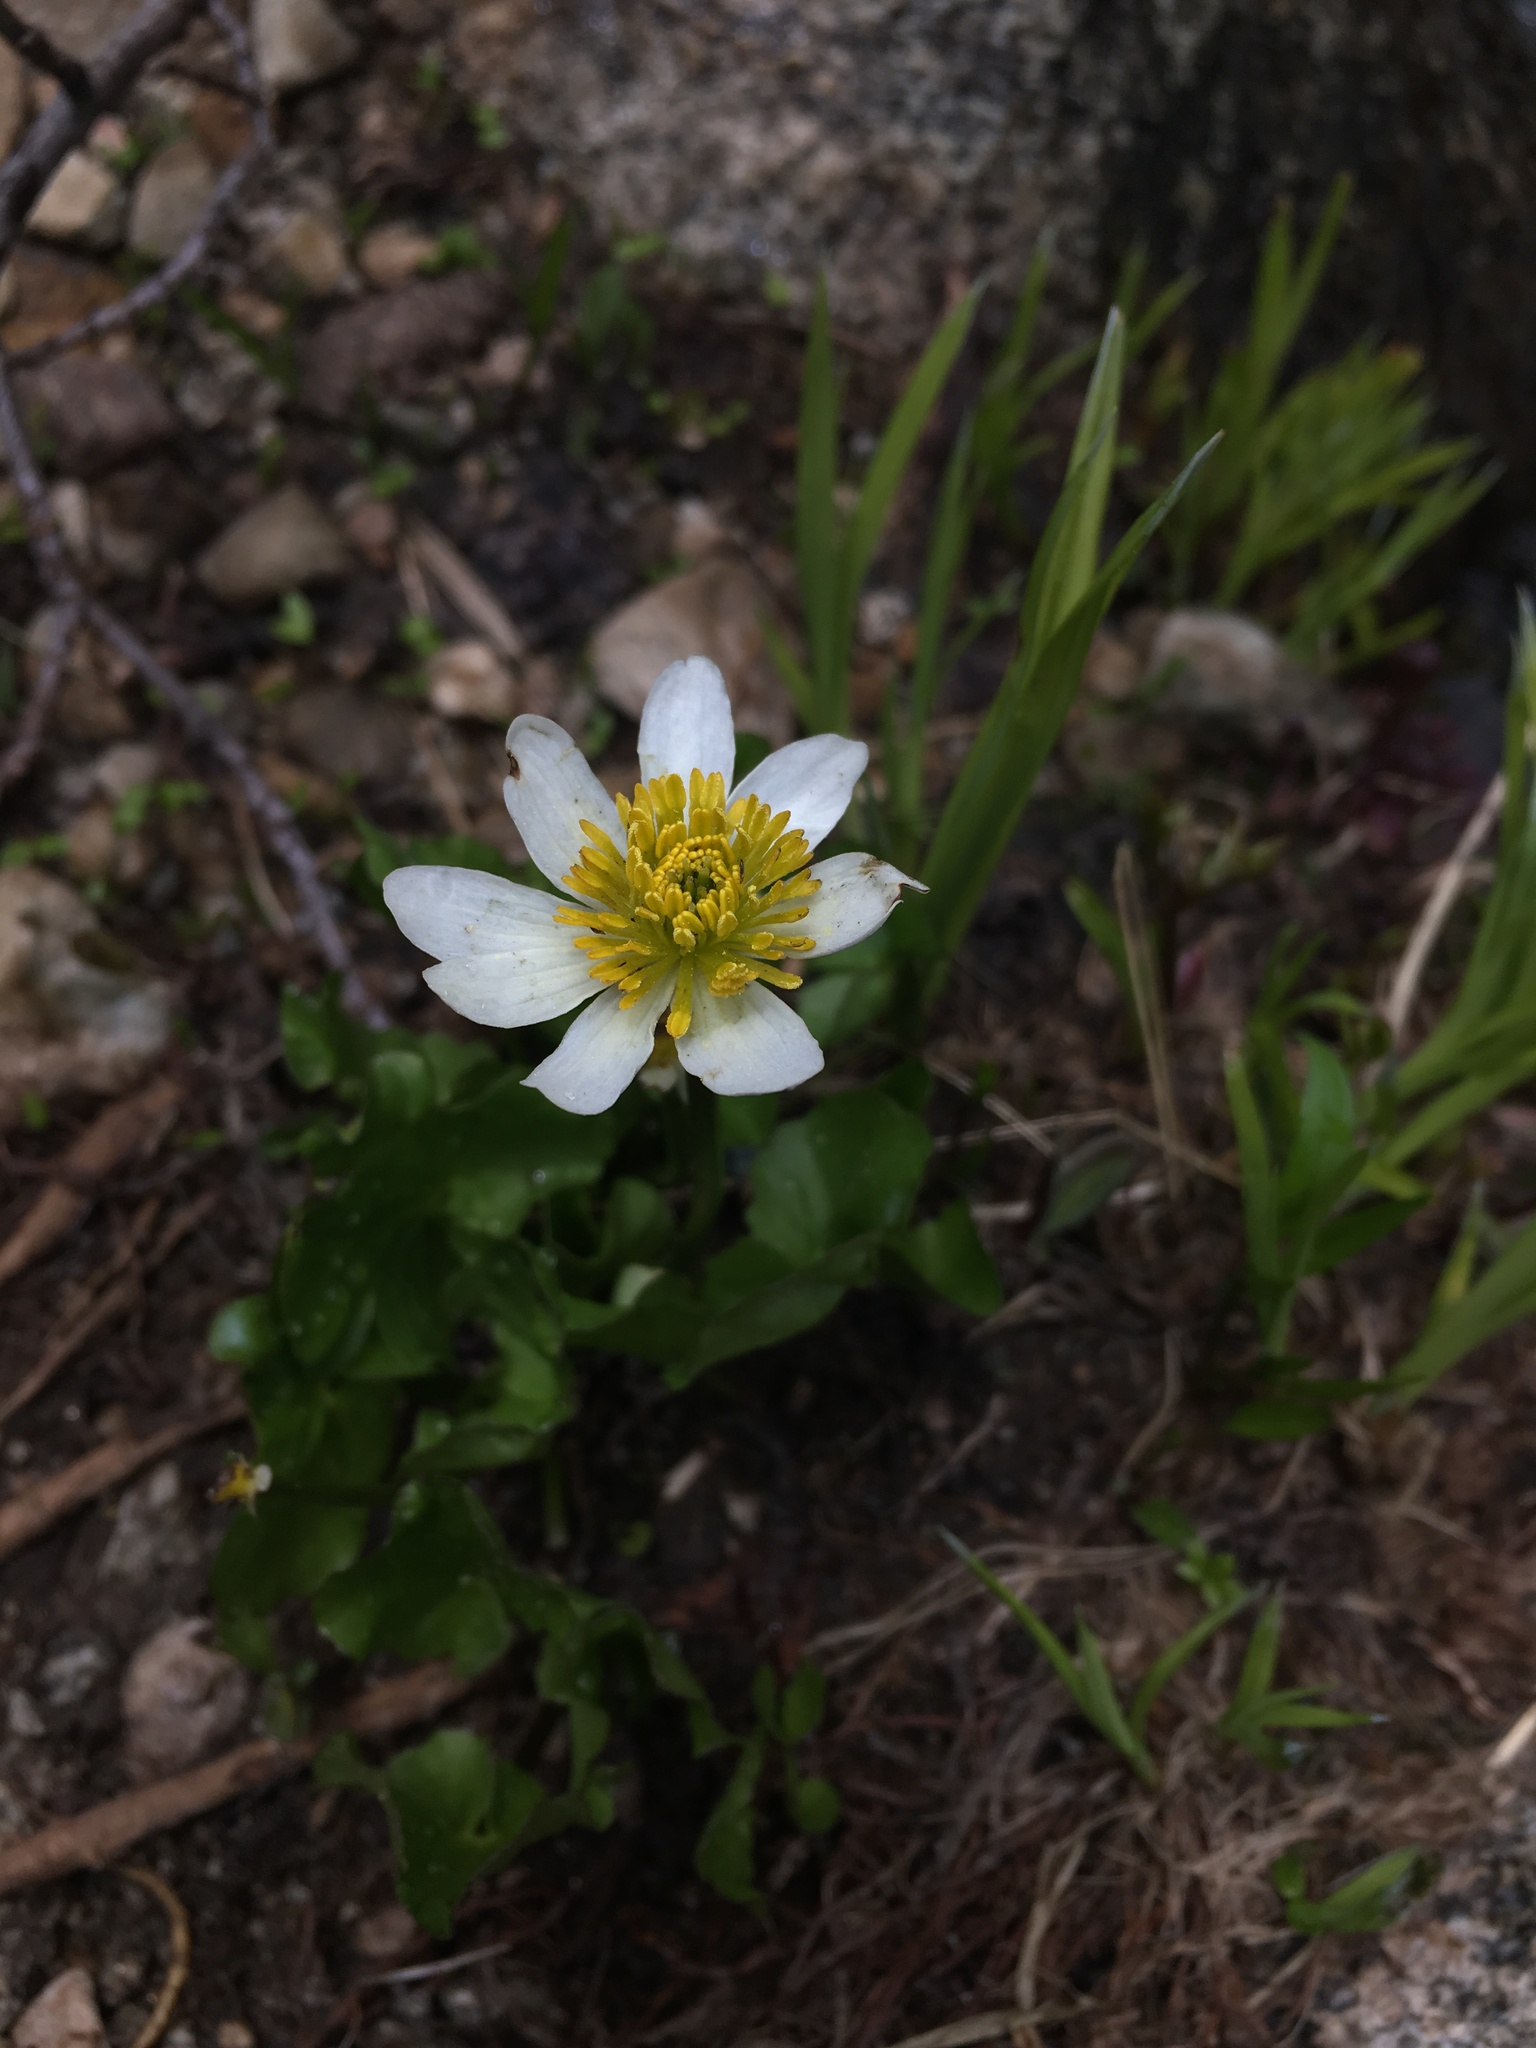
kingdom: Plantae
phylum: Tracheophyta
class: Magnoliopsida
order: Ranunculales
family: Ranunculaceae
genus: Caltha
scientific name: Caltha leptosepala
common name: Elkslip
